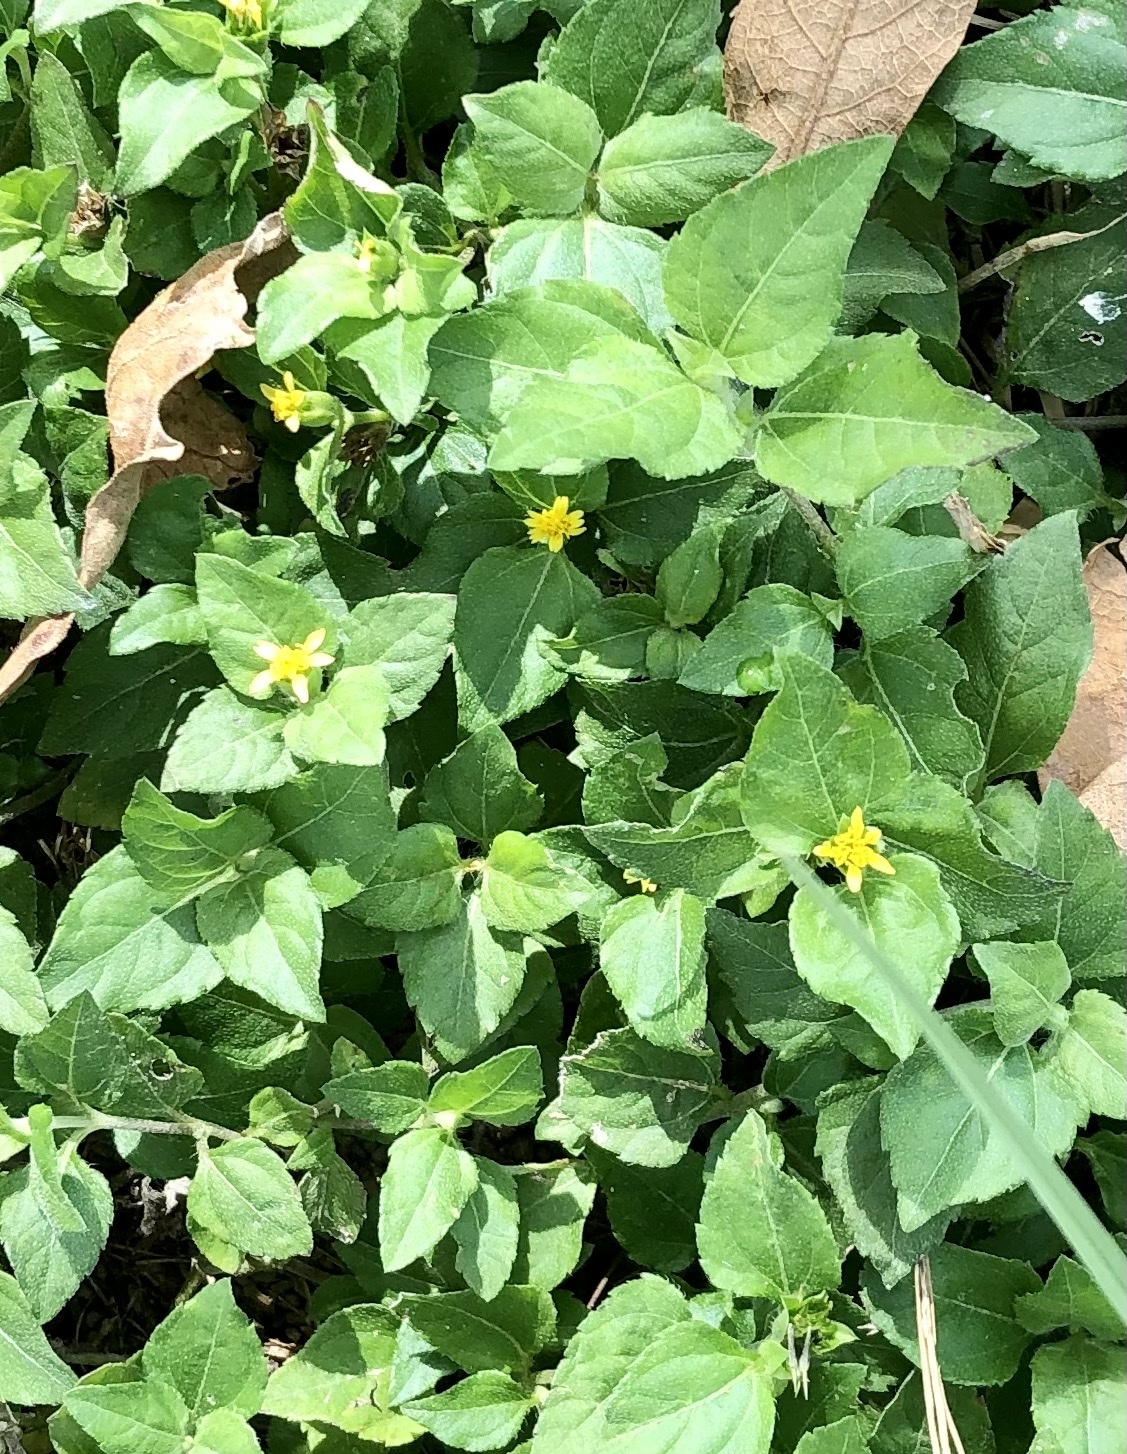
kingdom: Plantae
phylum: Tracheophyta
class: Magnoliopsida
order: Asterales
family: Asteraceae
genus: Calyptocarpus
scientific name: Calyptocarpus vialis
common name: Straggler daisy
